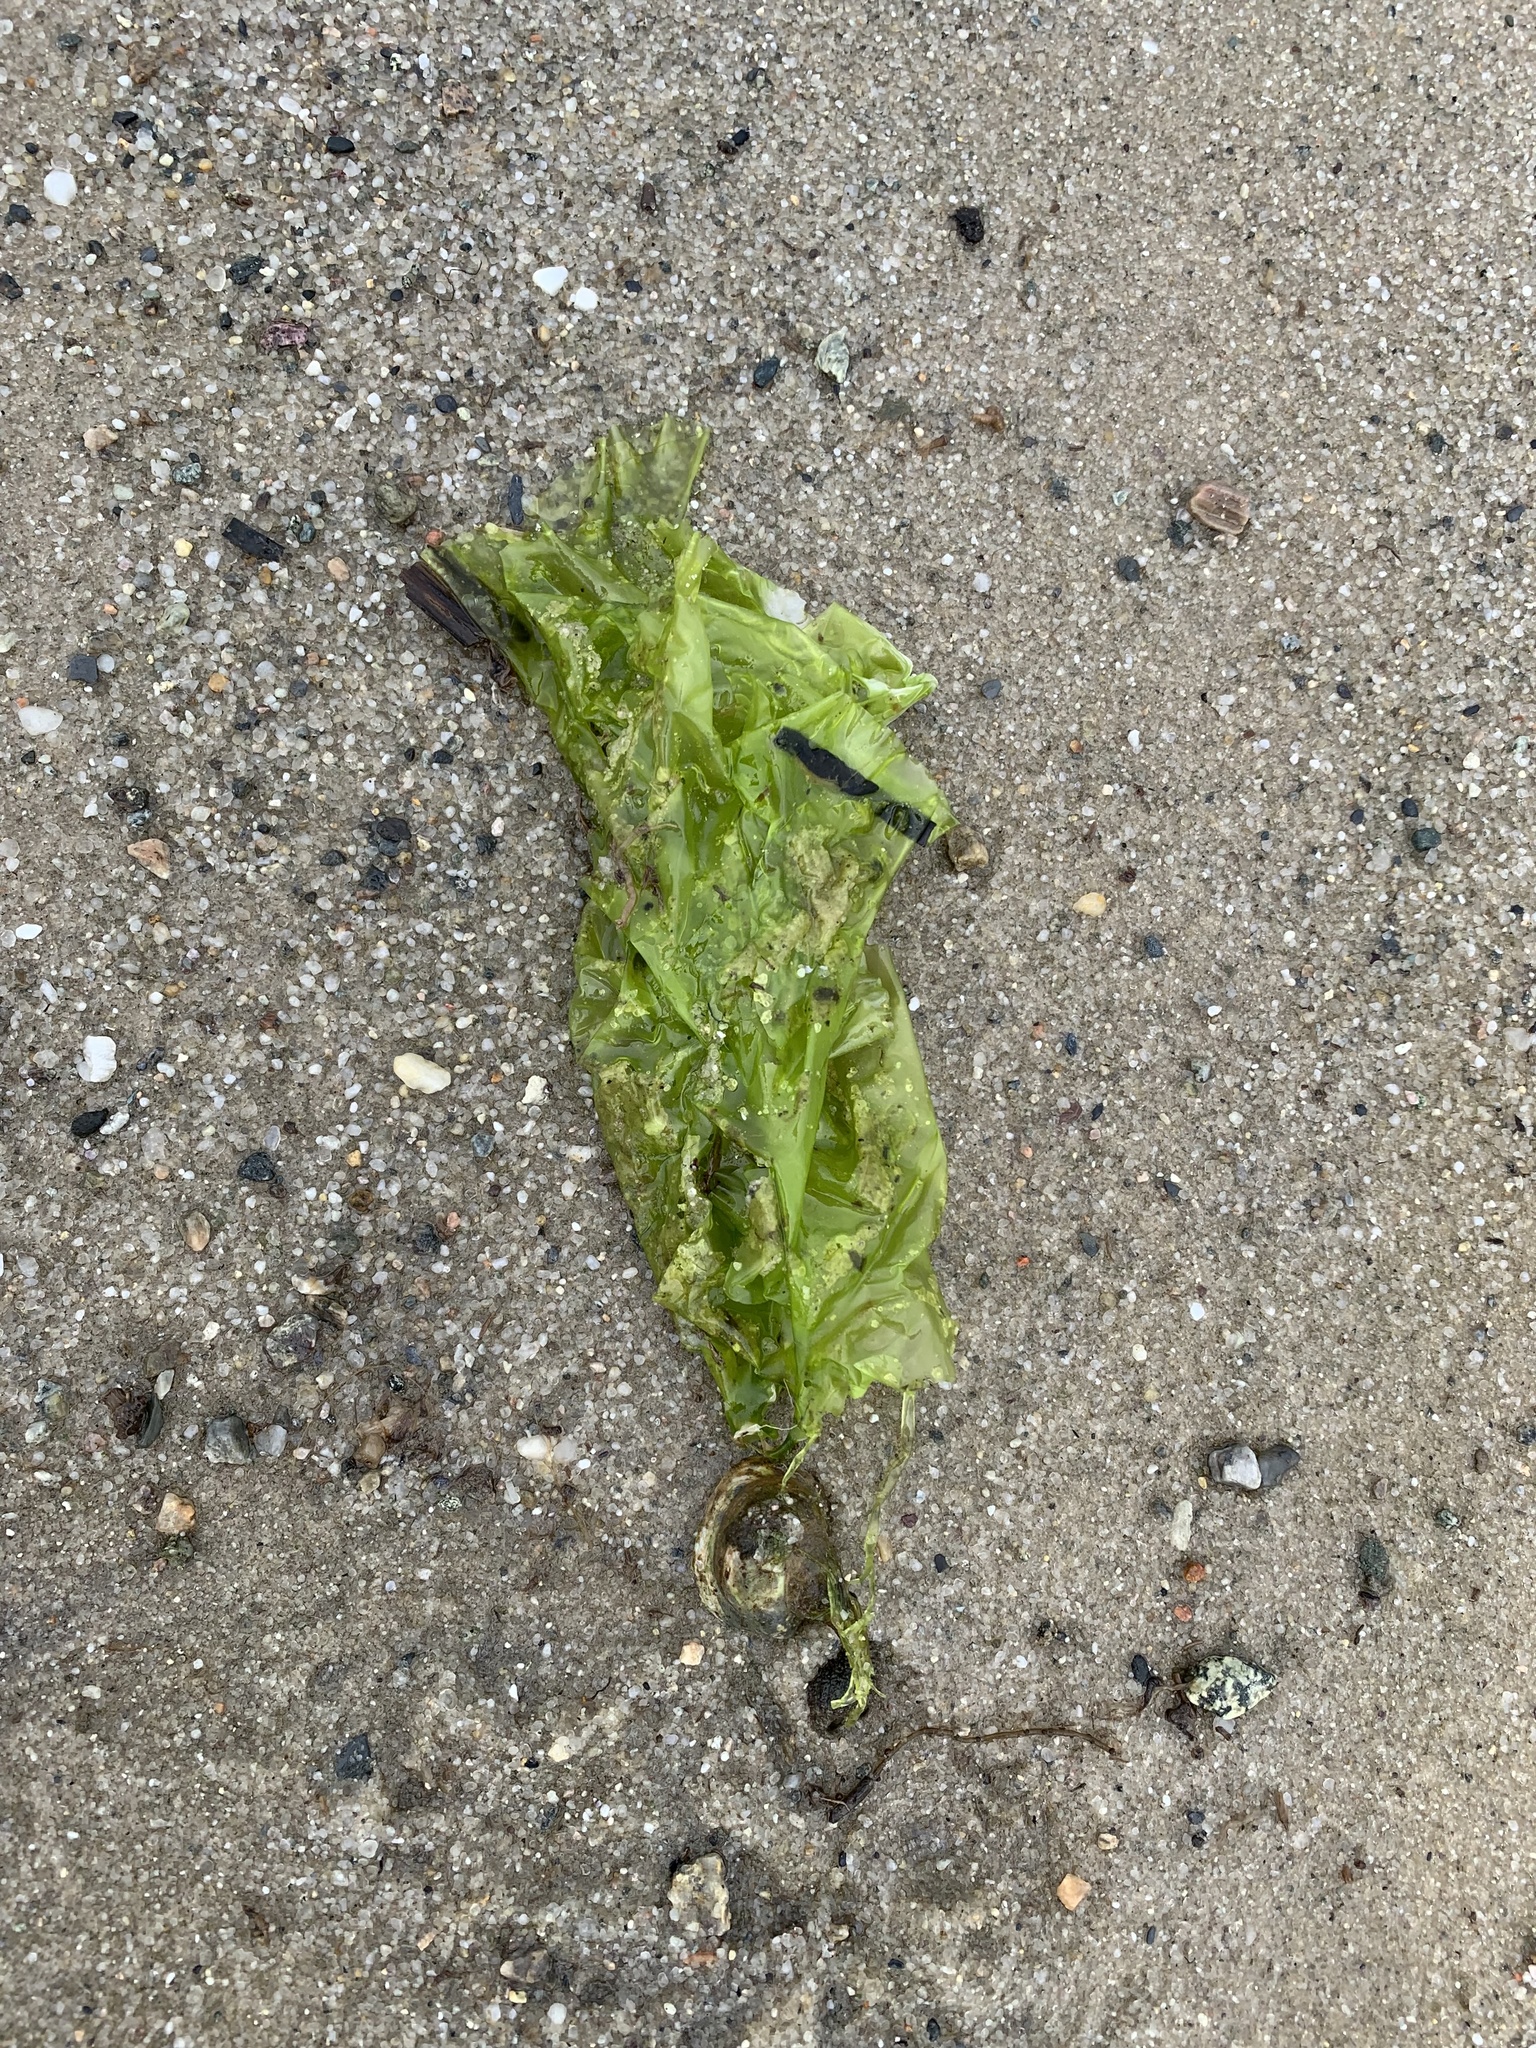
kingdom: Plantae
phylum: Chlorophyta
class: Ulvophyceae
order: Ulvales
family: Ulvaceae
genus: Ulva
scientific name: Ulva lactuca
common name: Sea lettuce
